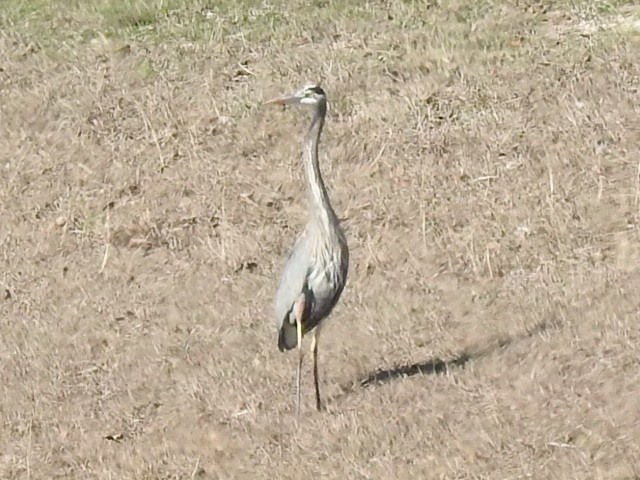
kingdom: Animalia
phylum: Chordata
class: Aves
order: Pelecaniformes
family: Ardeidae
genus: Ardea
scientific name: Ardea herodias
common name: Great blue heron
